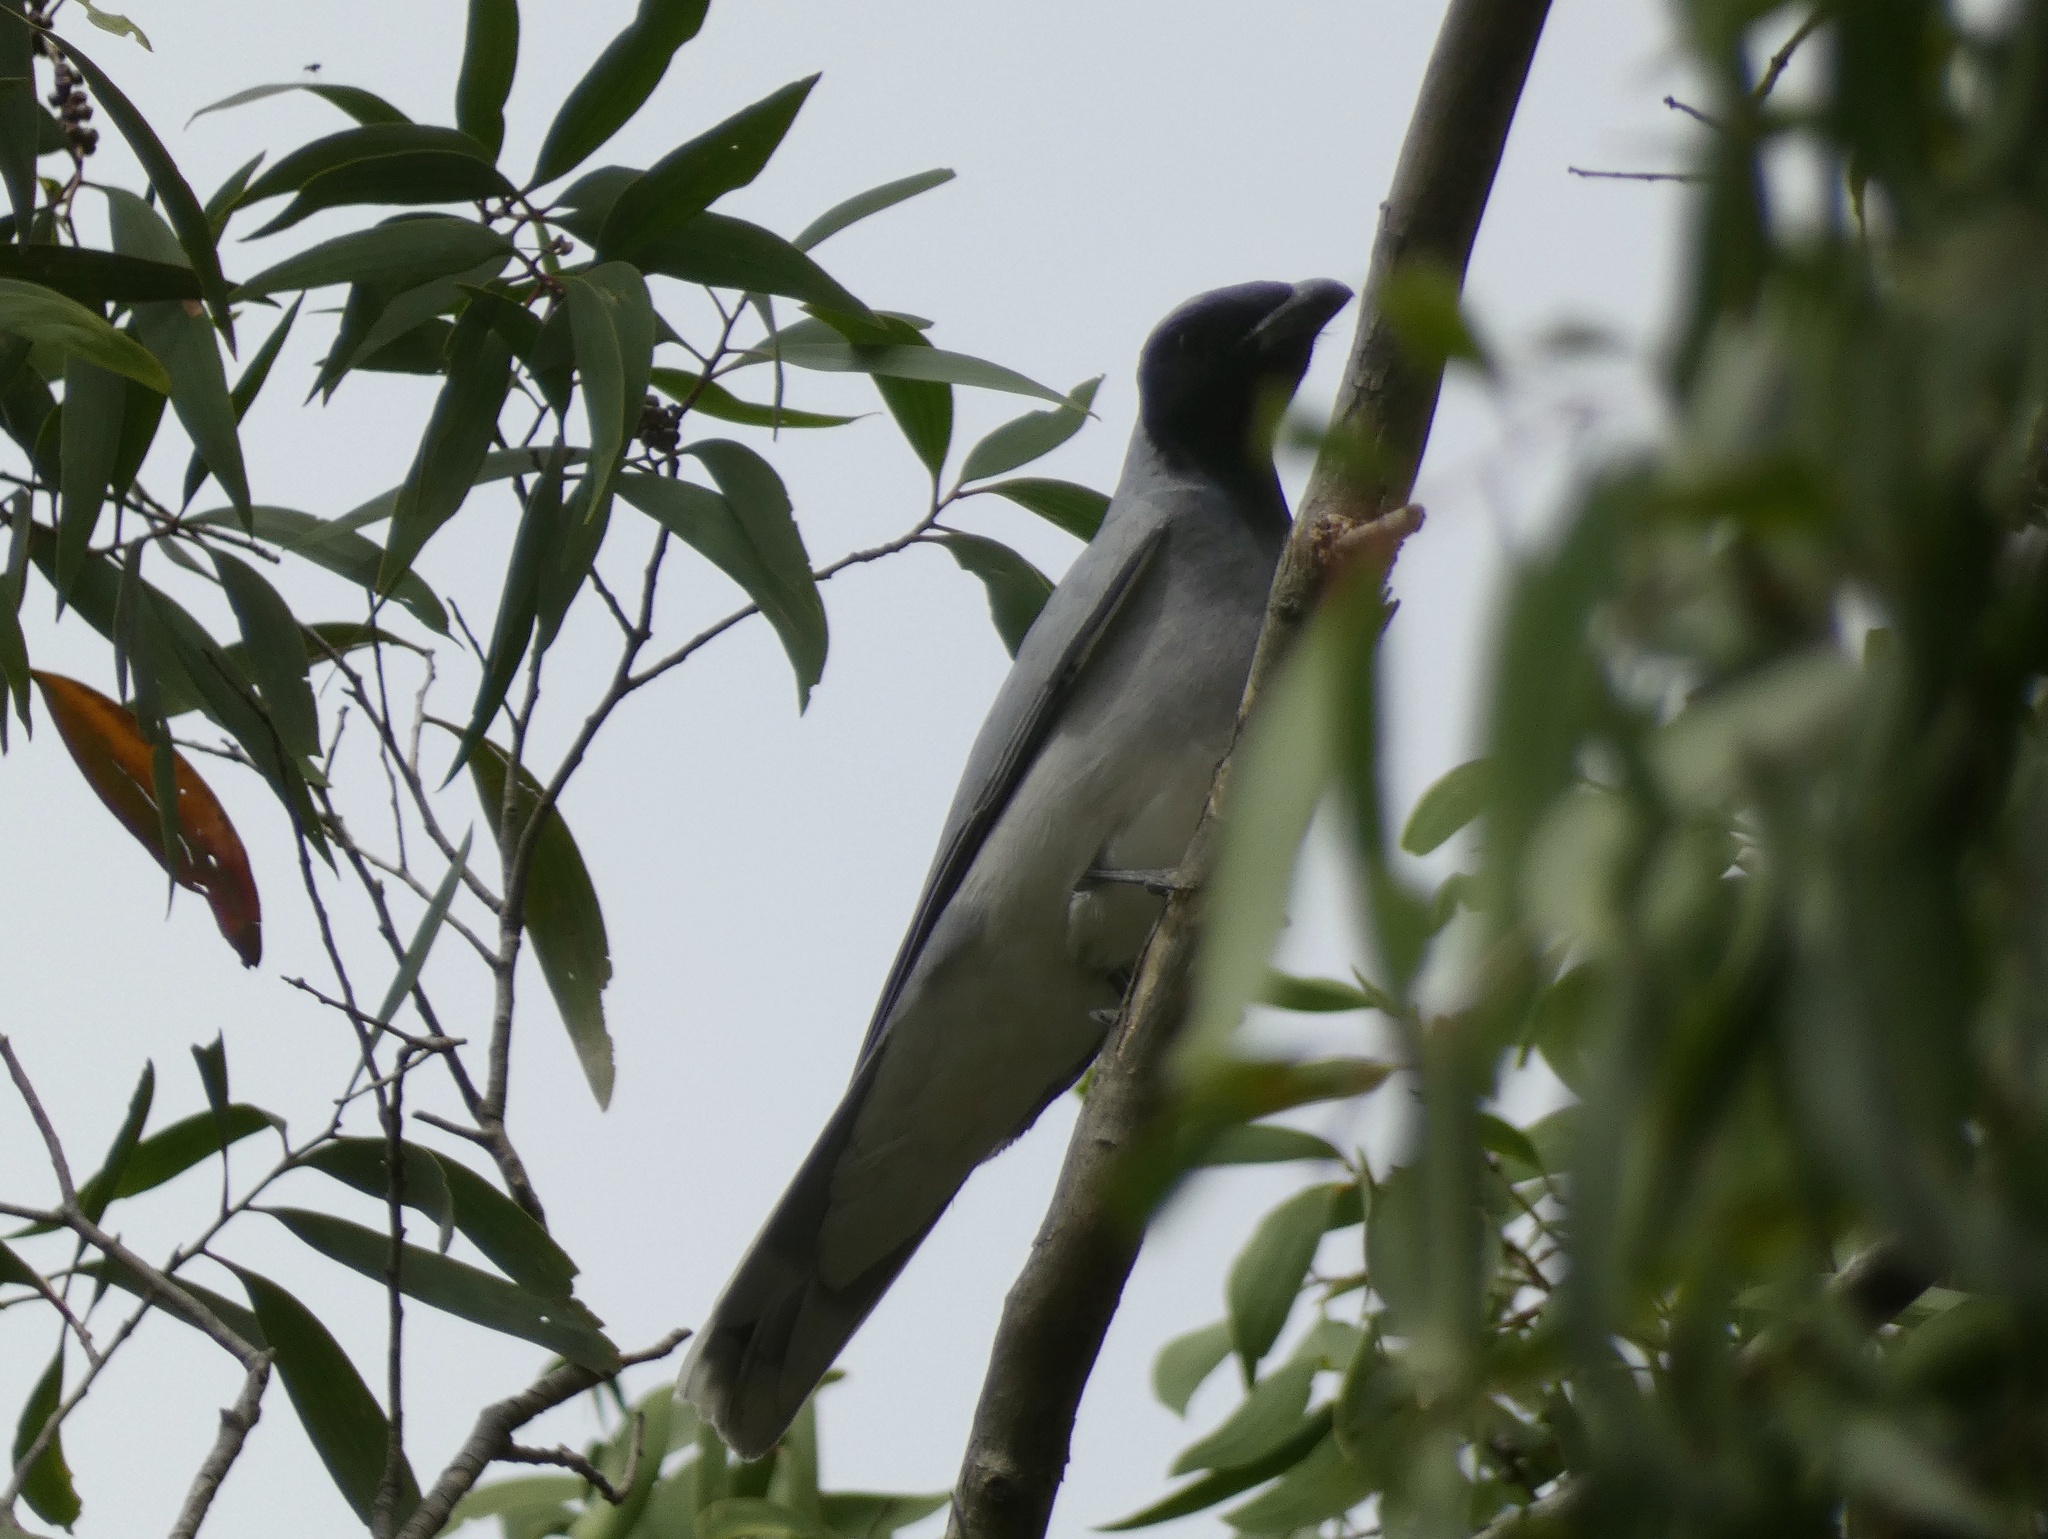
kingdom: Animalia
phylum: Chordata
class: Aves
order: Passeriformes
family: Campephagidae
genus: Coracina
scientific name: Coracina novaehollandiae
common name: Black-faced cuckooshrike
